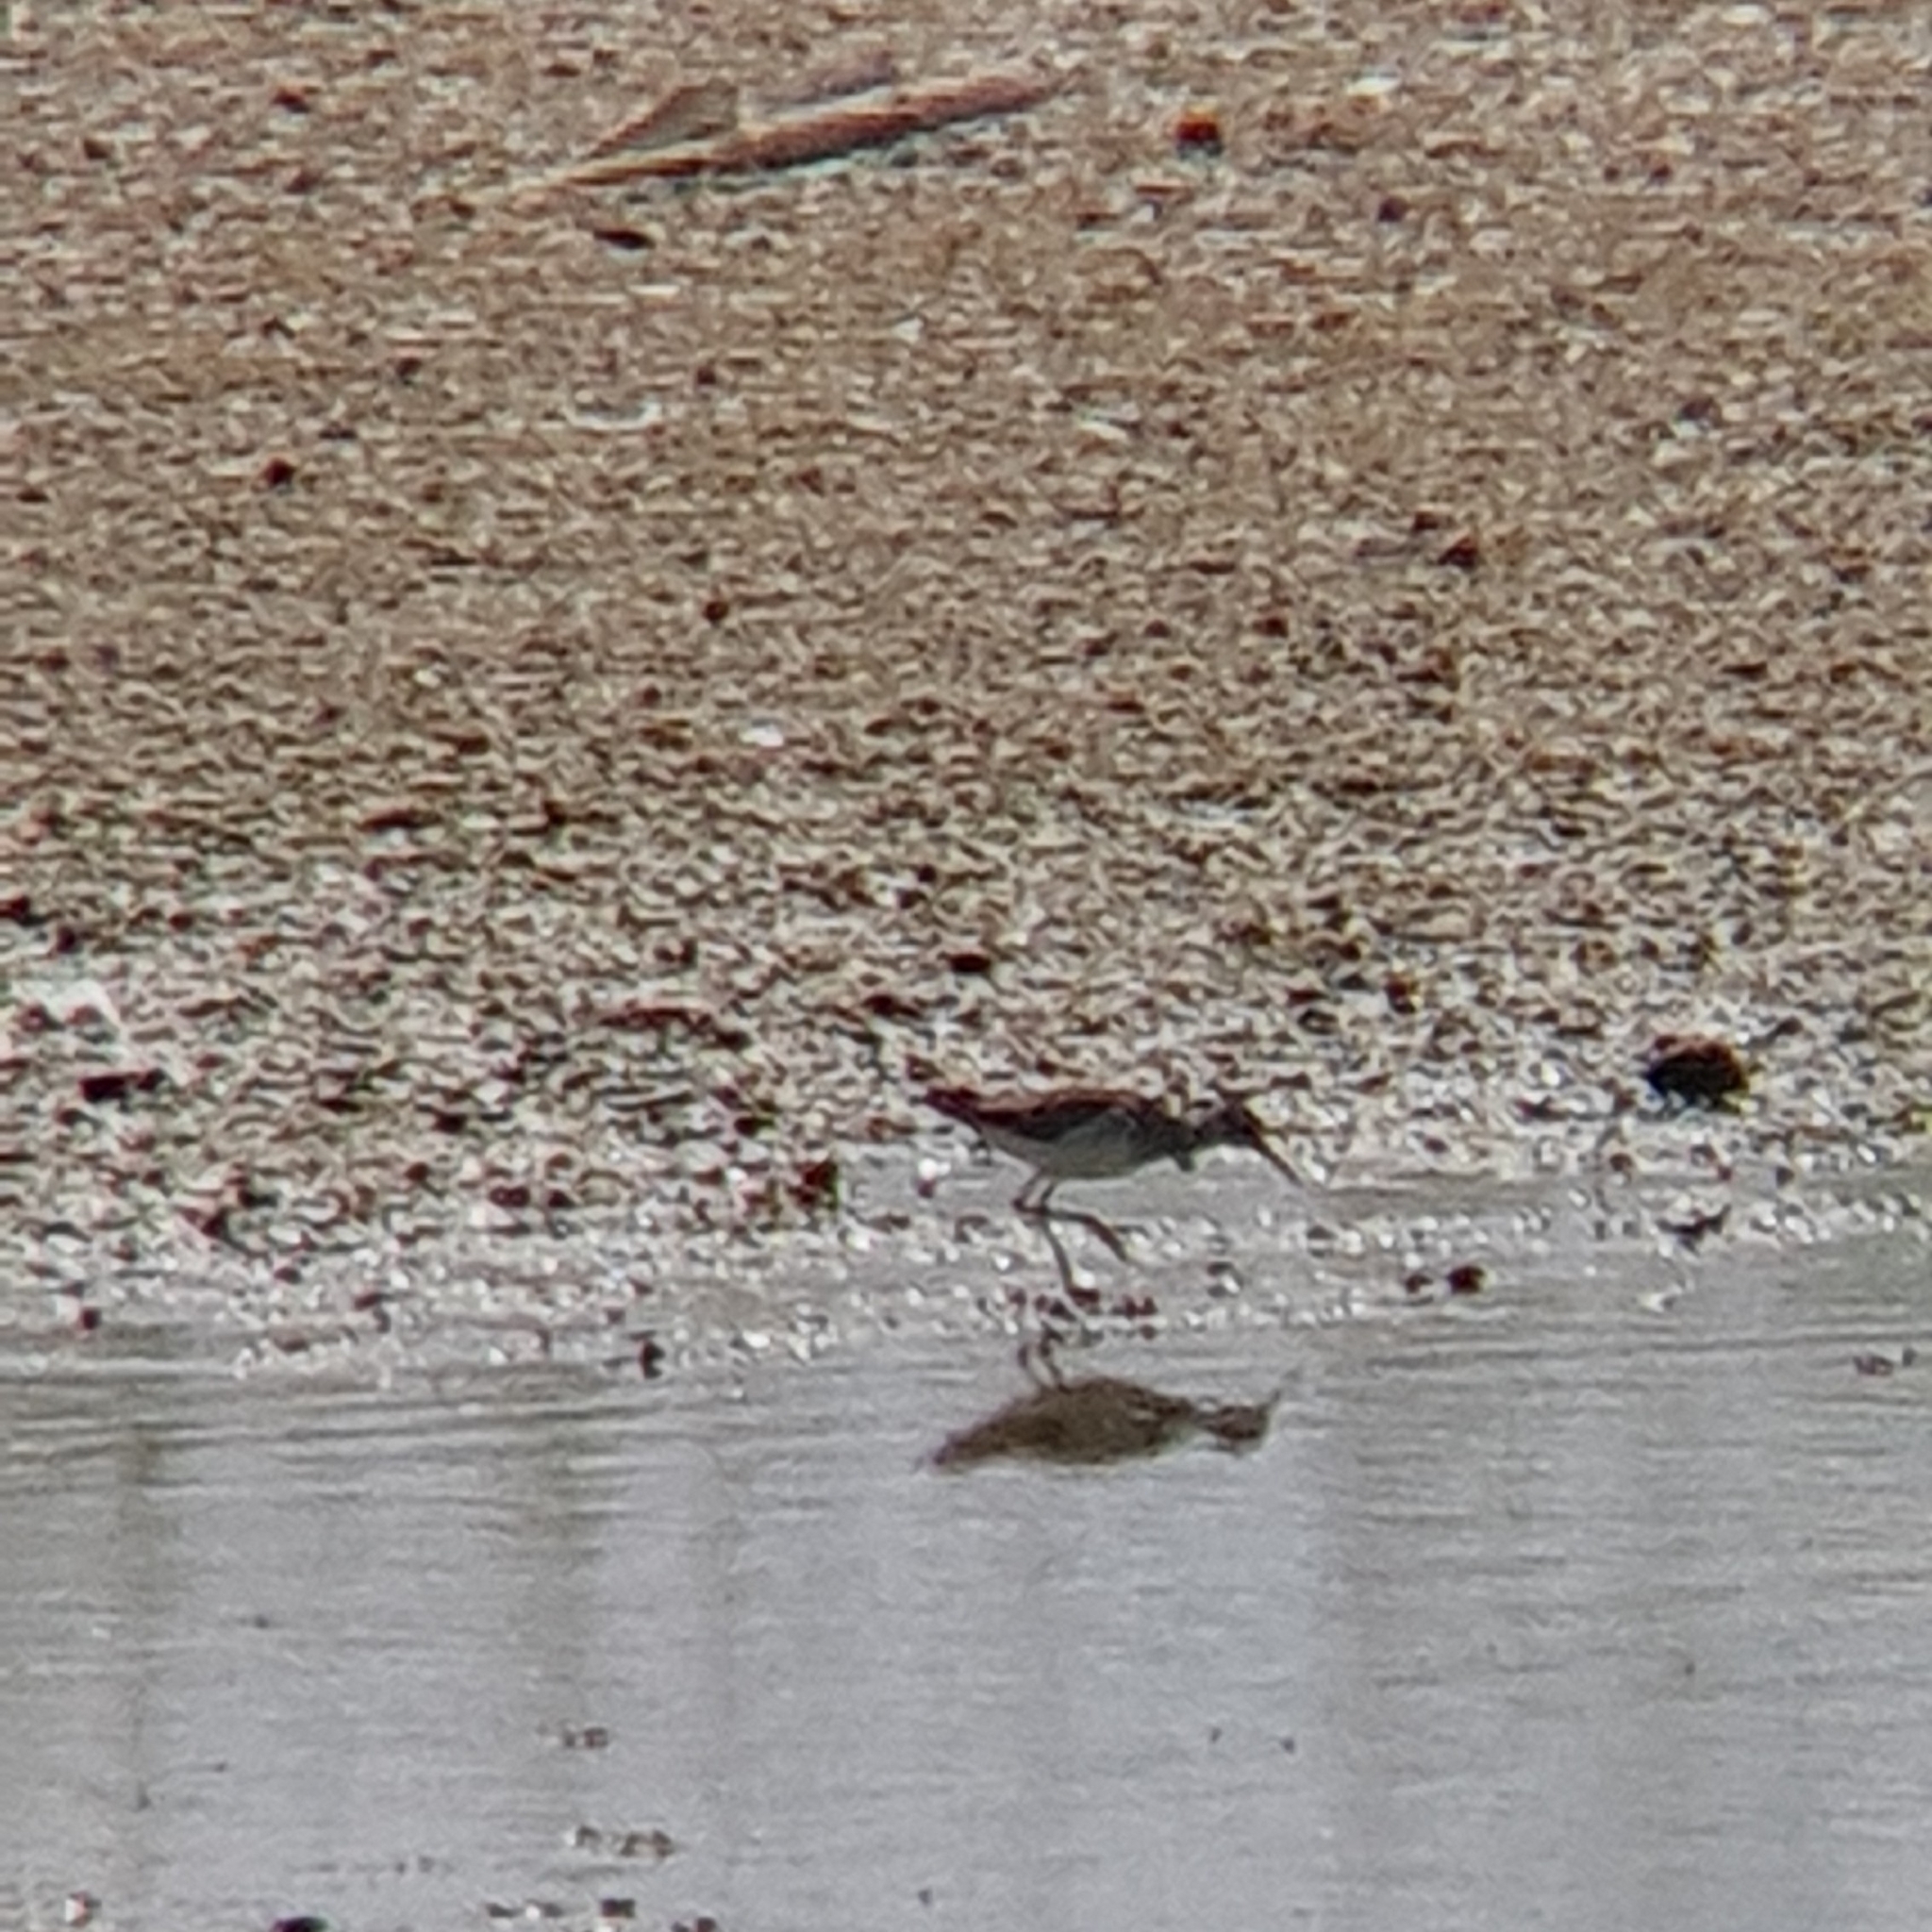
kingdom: Animalia
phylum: Chordata
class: Aves
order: Charadriiformes
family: Scolopacidae
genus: Tringa
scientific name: Tringa glareola
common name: Wood sandpiper
